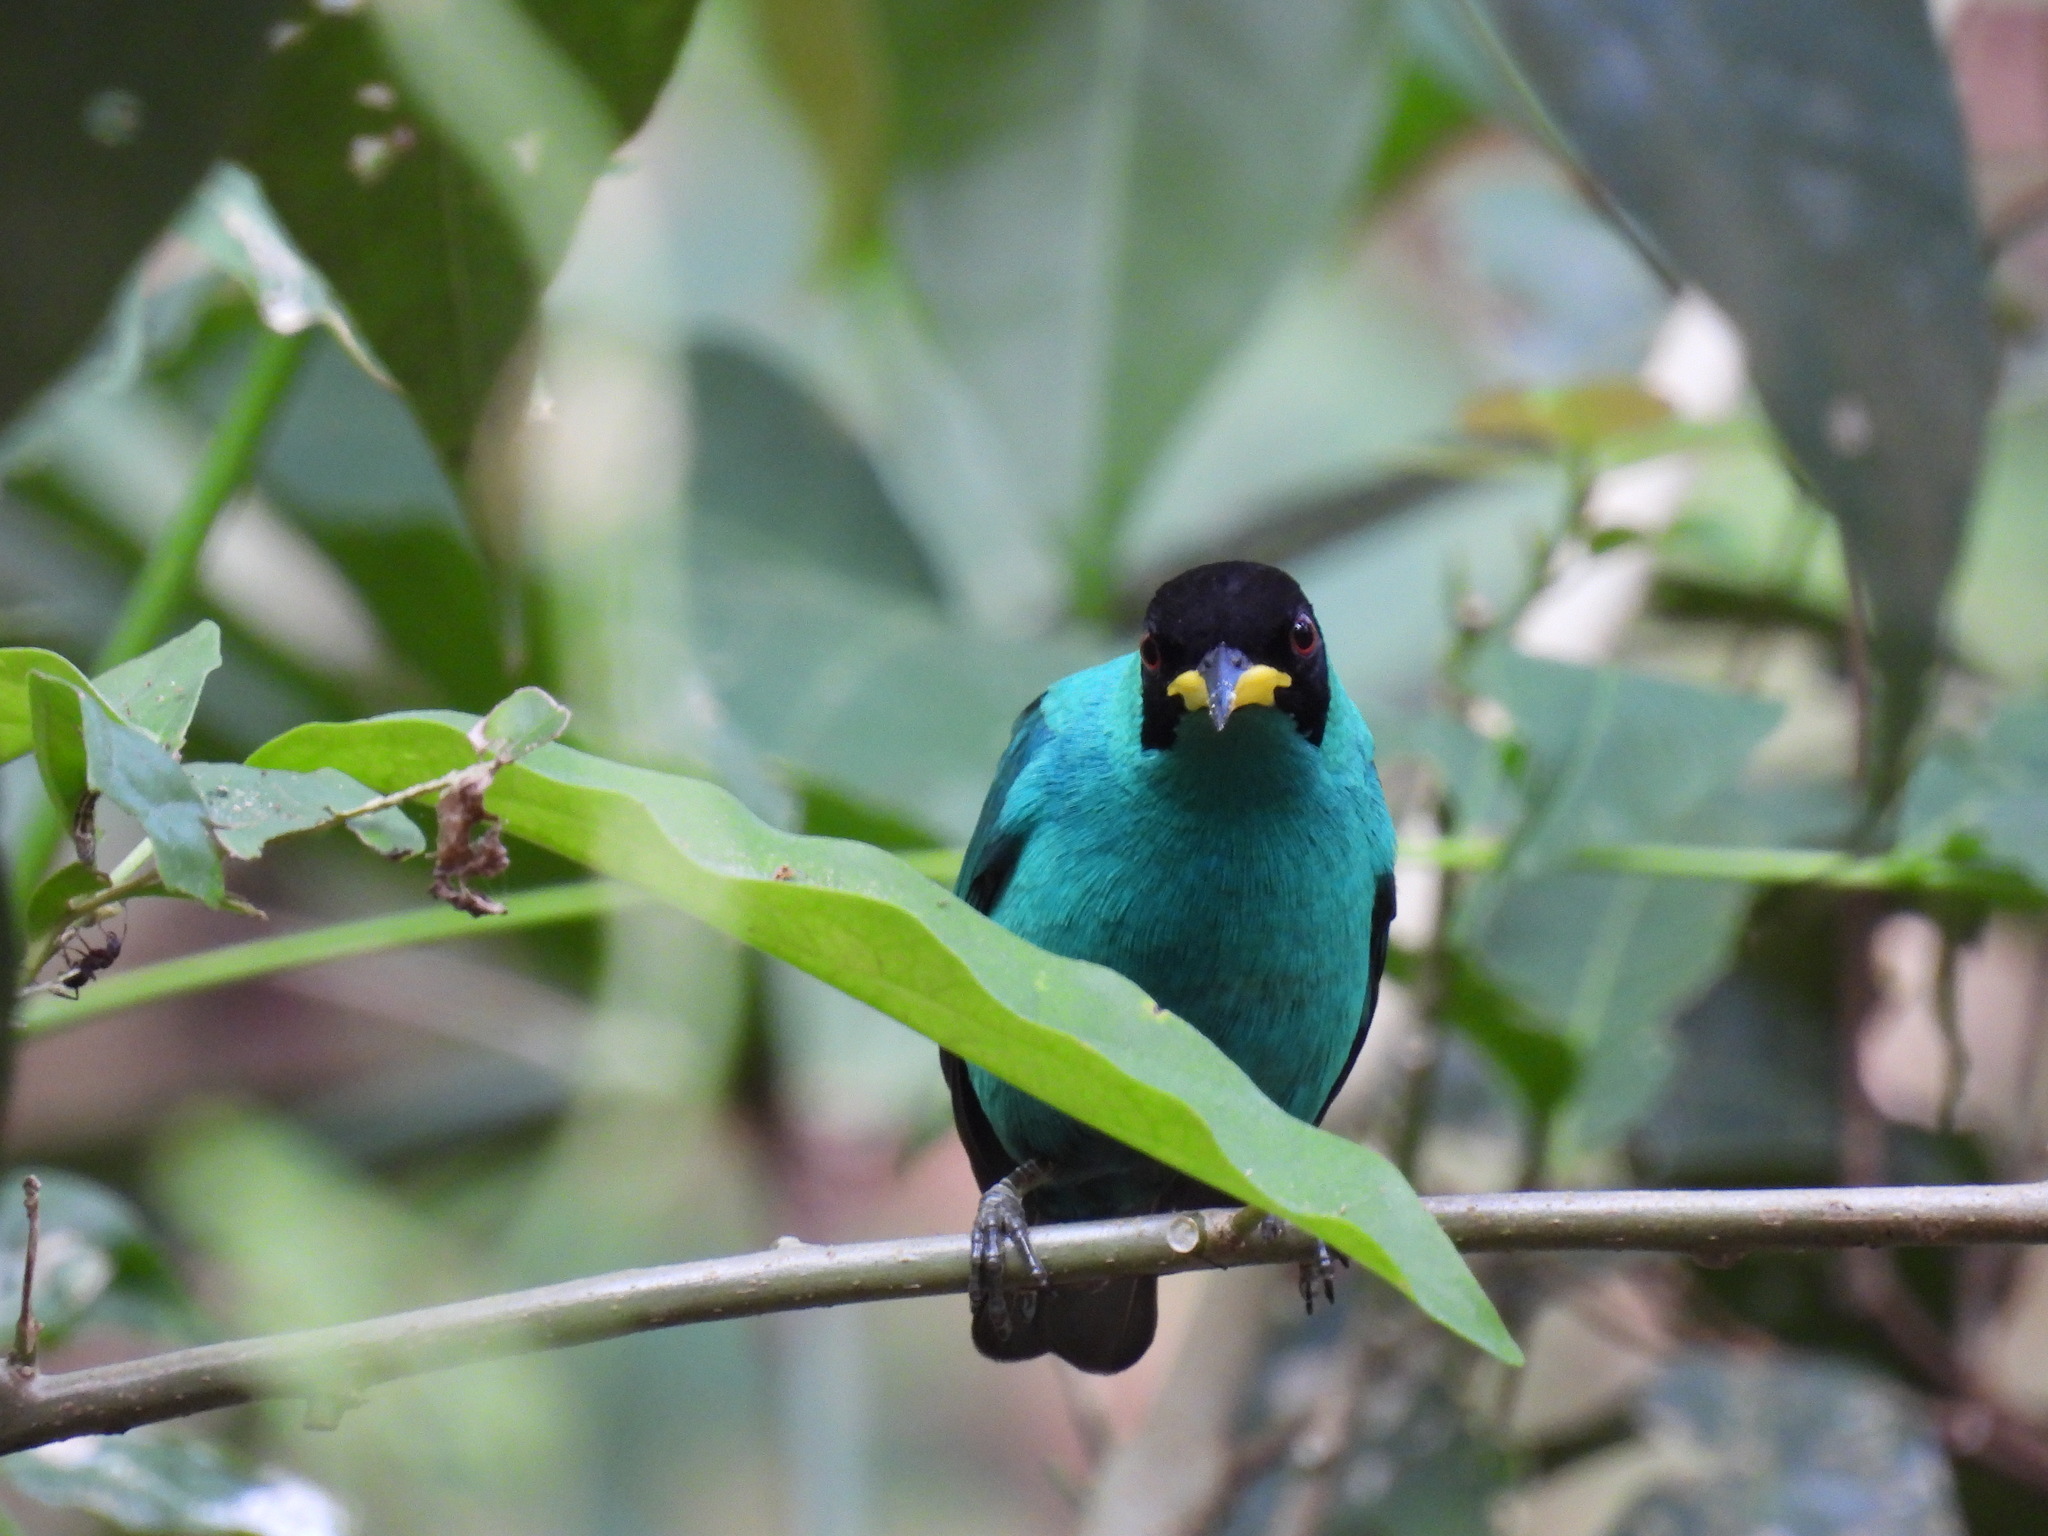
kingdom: Animalia
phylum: Chordata
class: Aves
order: Passeriformes
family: Thraupidae
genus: Chlorophanes
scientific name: Chlorophanes spiza
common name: Green honeycreeper
